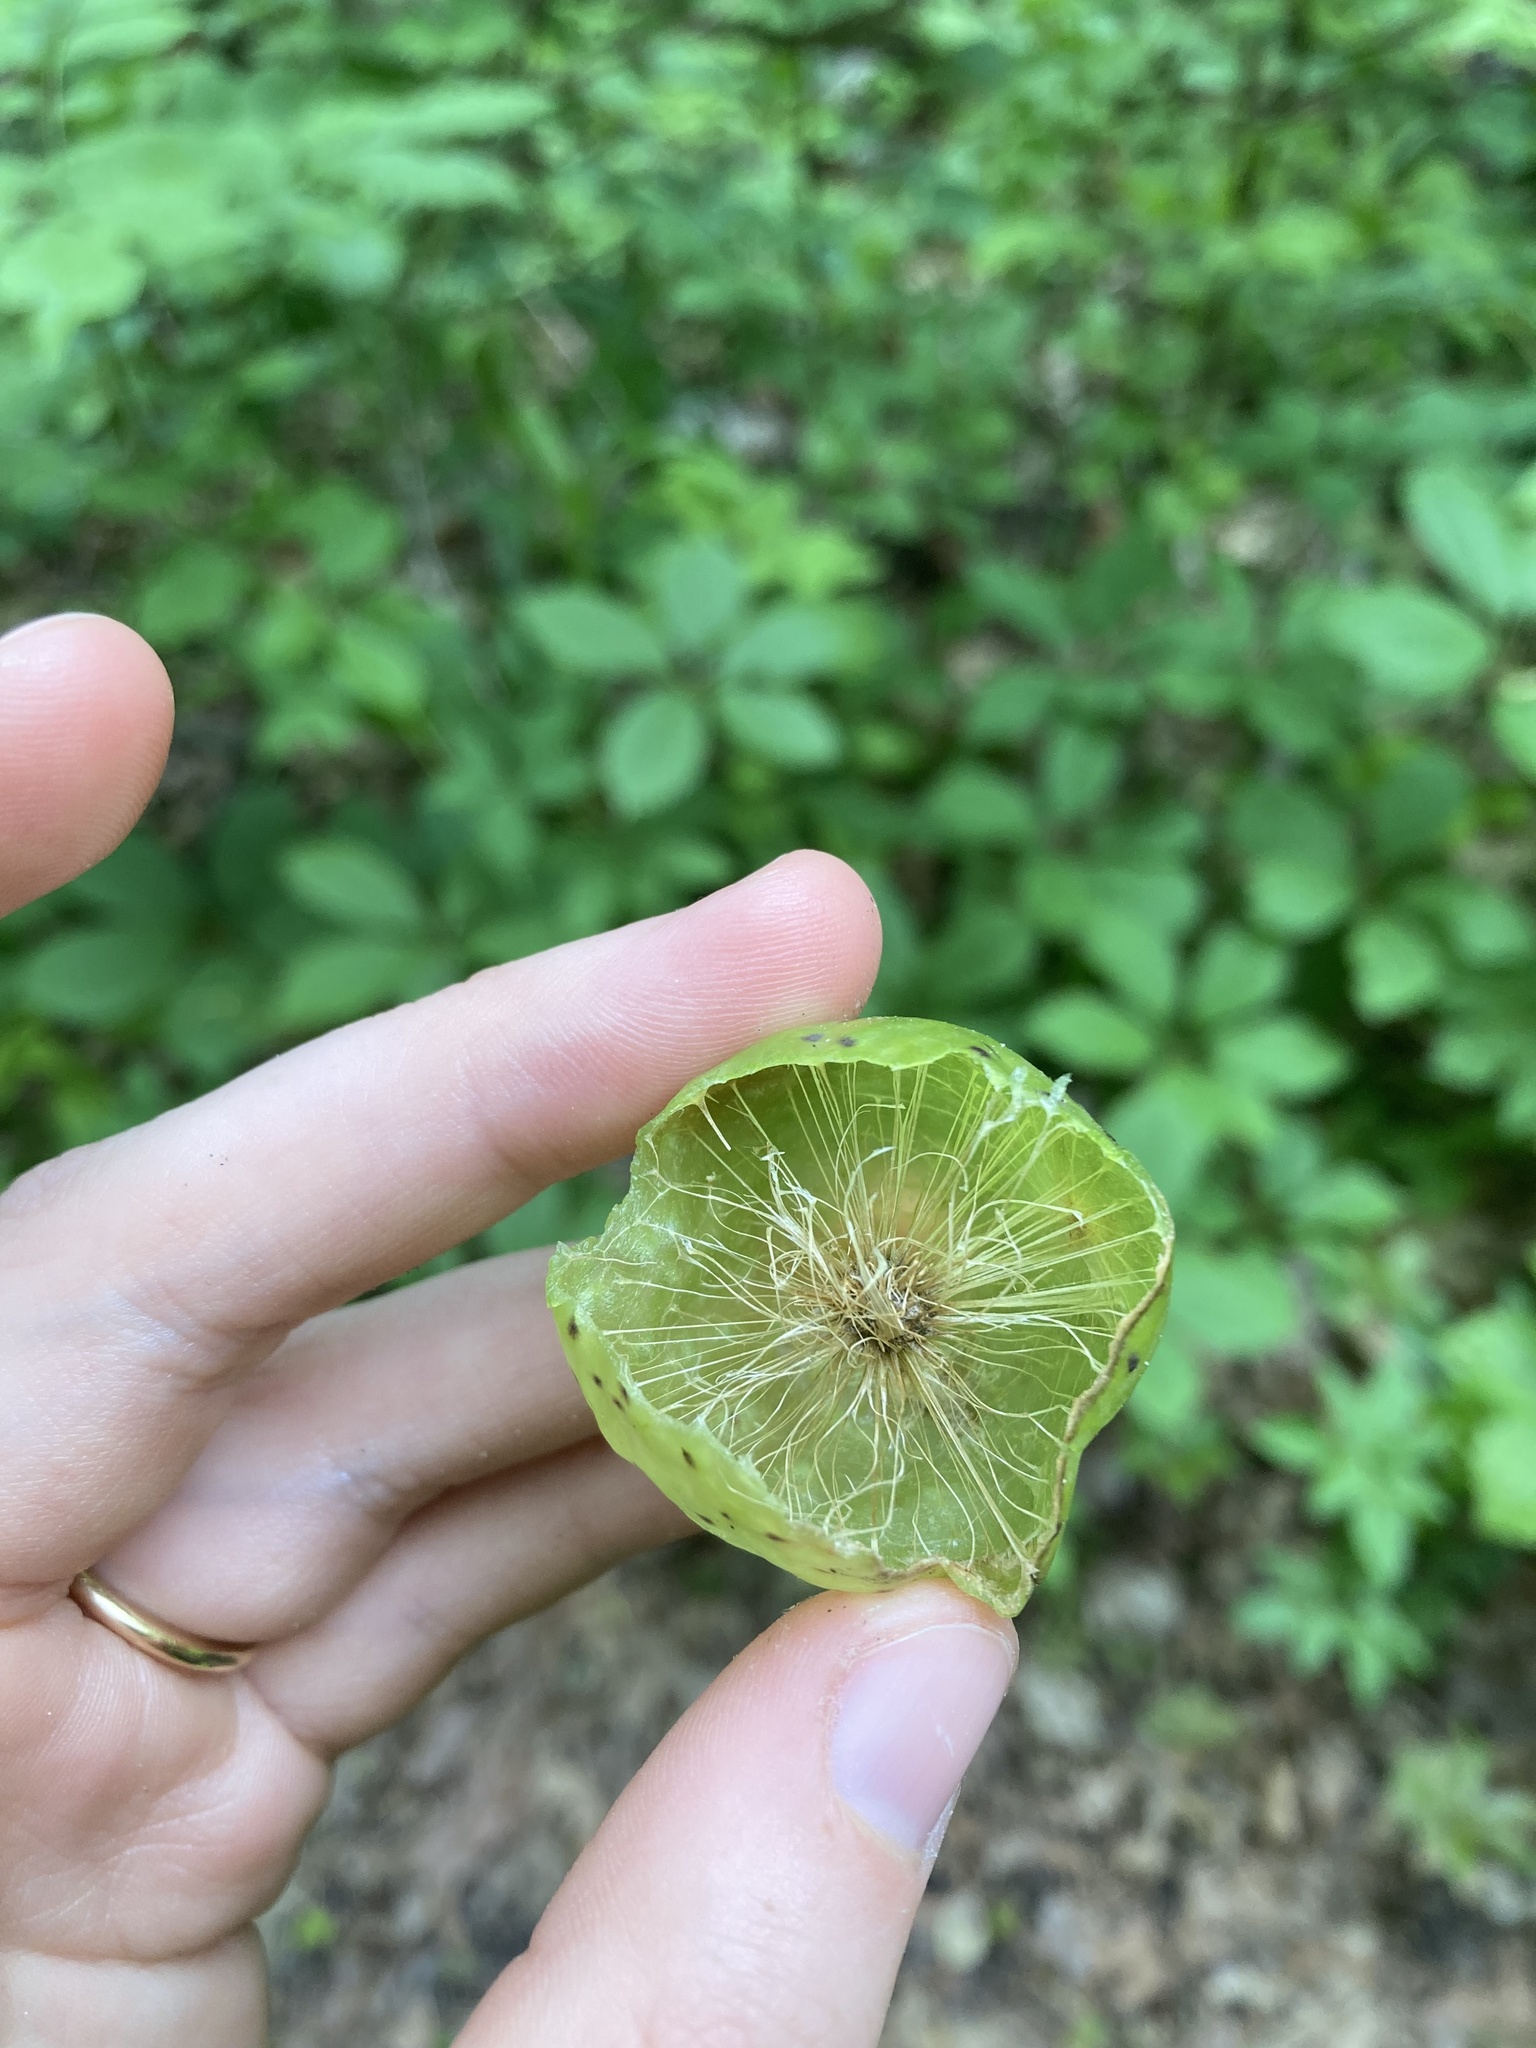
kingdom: Animalia
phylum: Arthropoda
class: Insecta
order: Hymenoptera
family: Cynipidae
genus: Amphibolips
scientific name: Amphibolips
